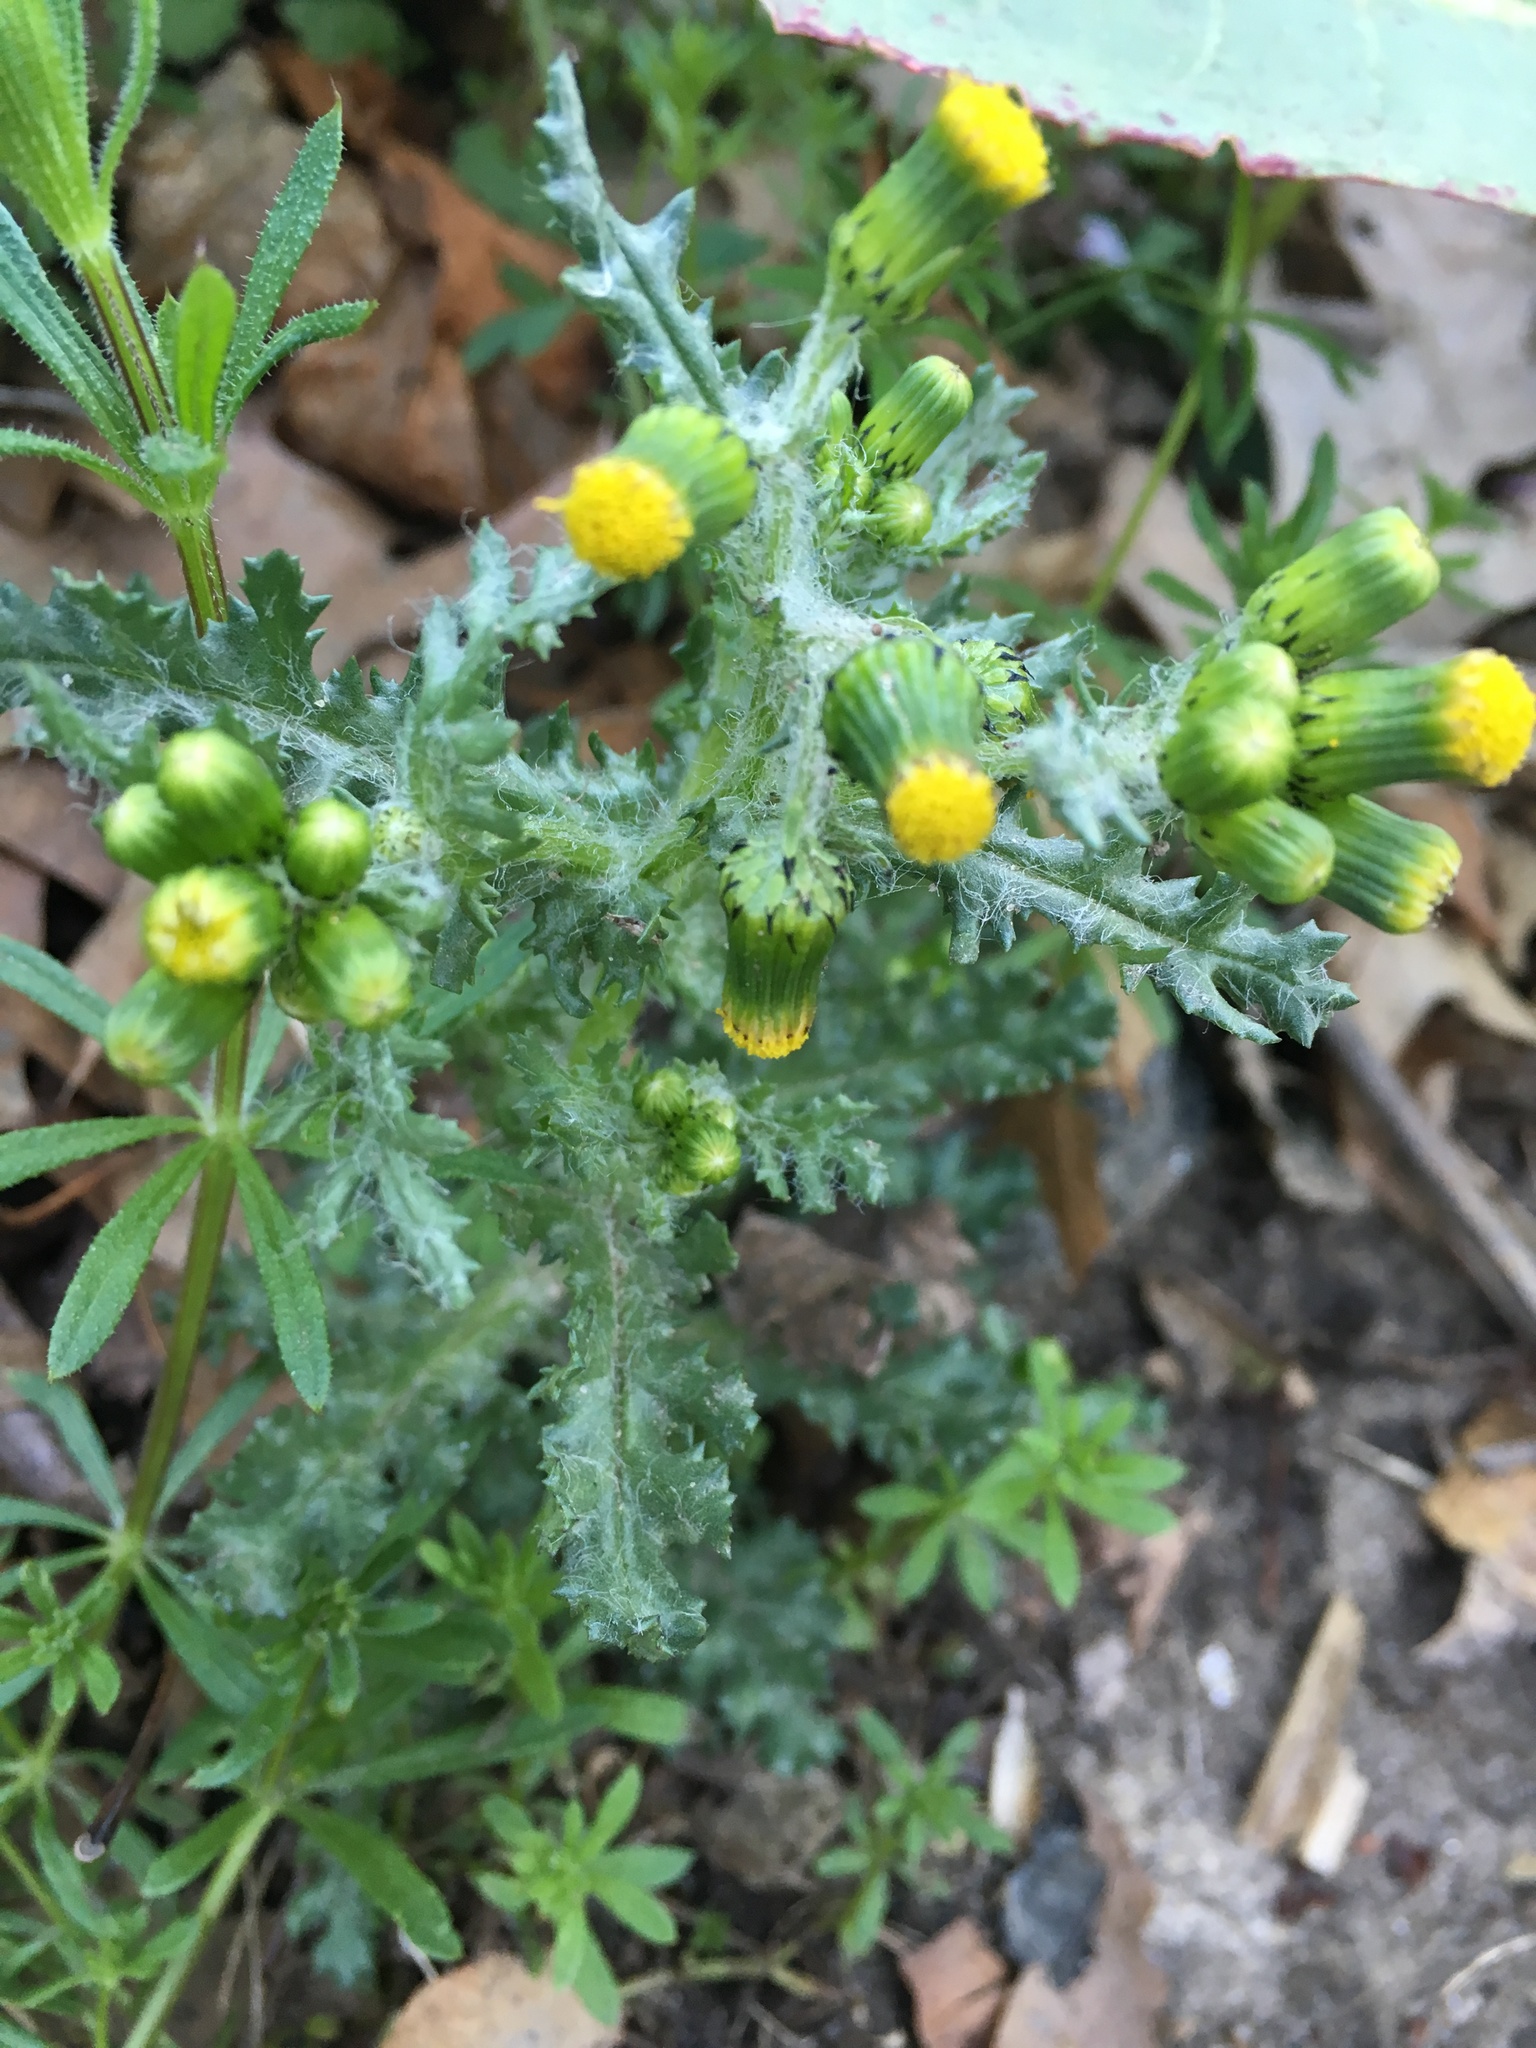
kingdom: Plantae
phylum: Tracheophyta
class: Magnoliopsida
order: Asterales
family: Asteraceae
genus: Senecio
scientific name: Senecio vulgaris
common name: Old-man-in-the-spring
